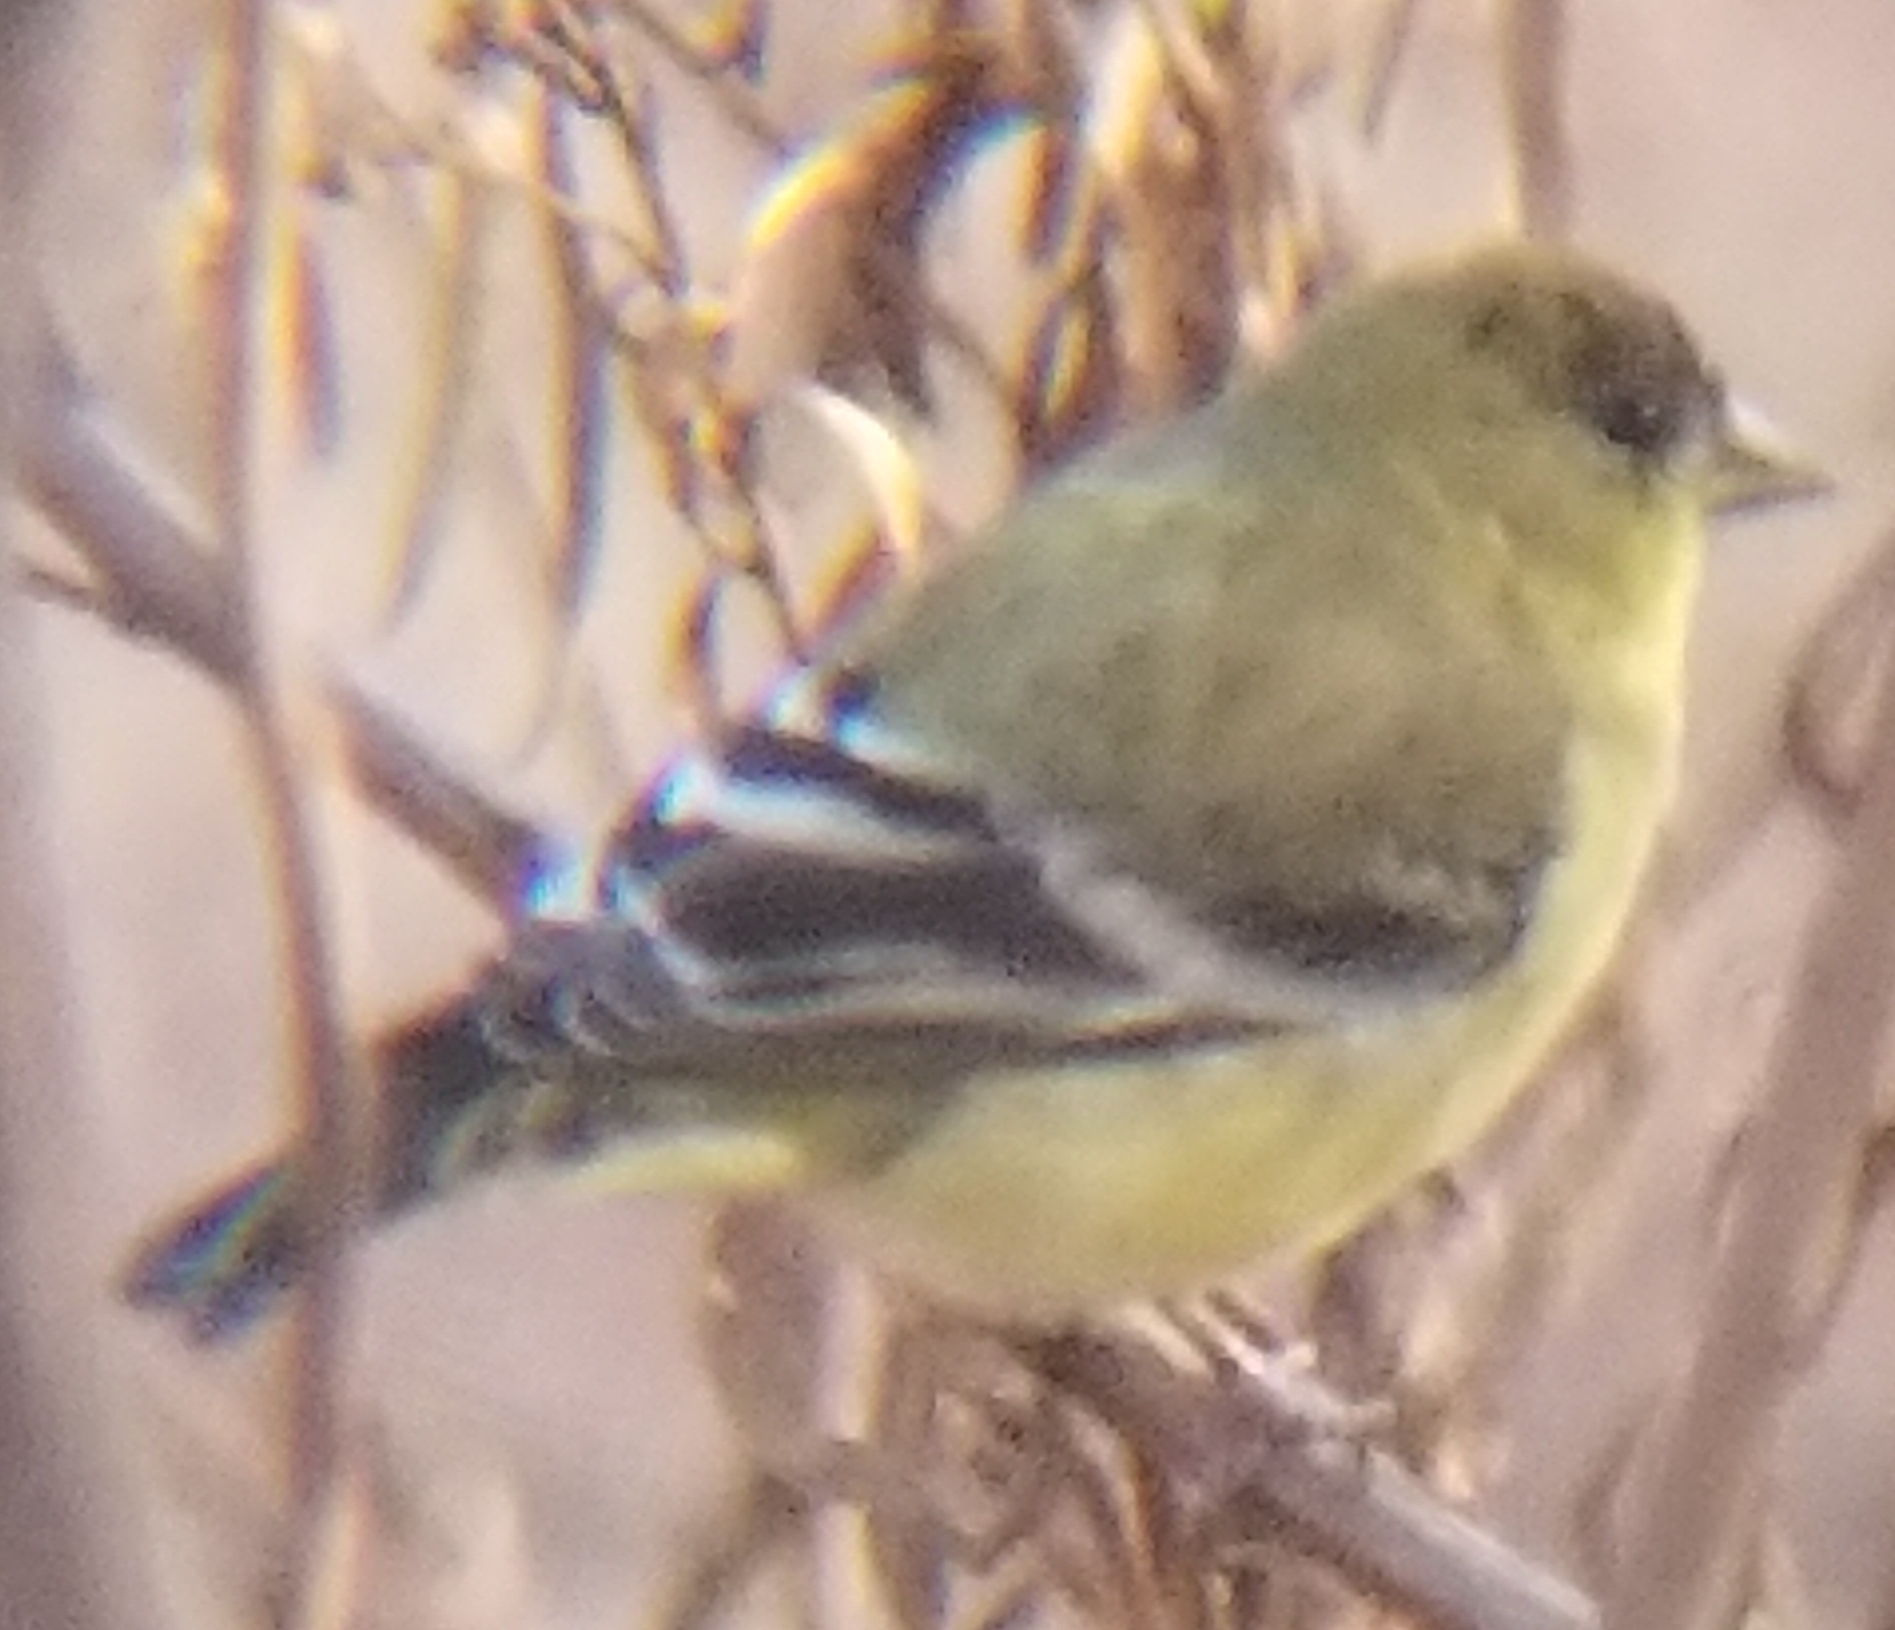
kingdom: Animalia
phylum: Chordata
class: Aves
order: Passeriformes
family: Fringillidae
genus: Spinus
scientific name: Spinus psaltria
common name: Lesser goldfinch
